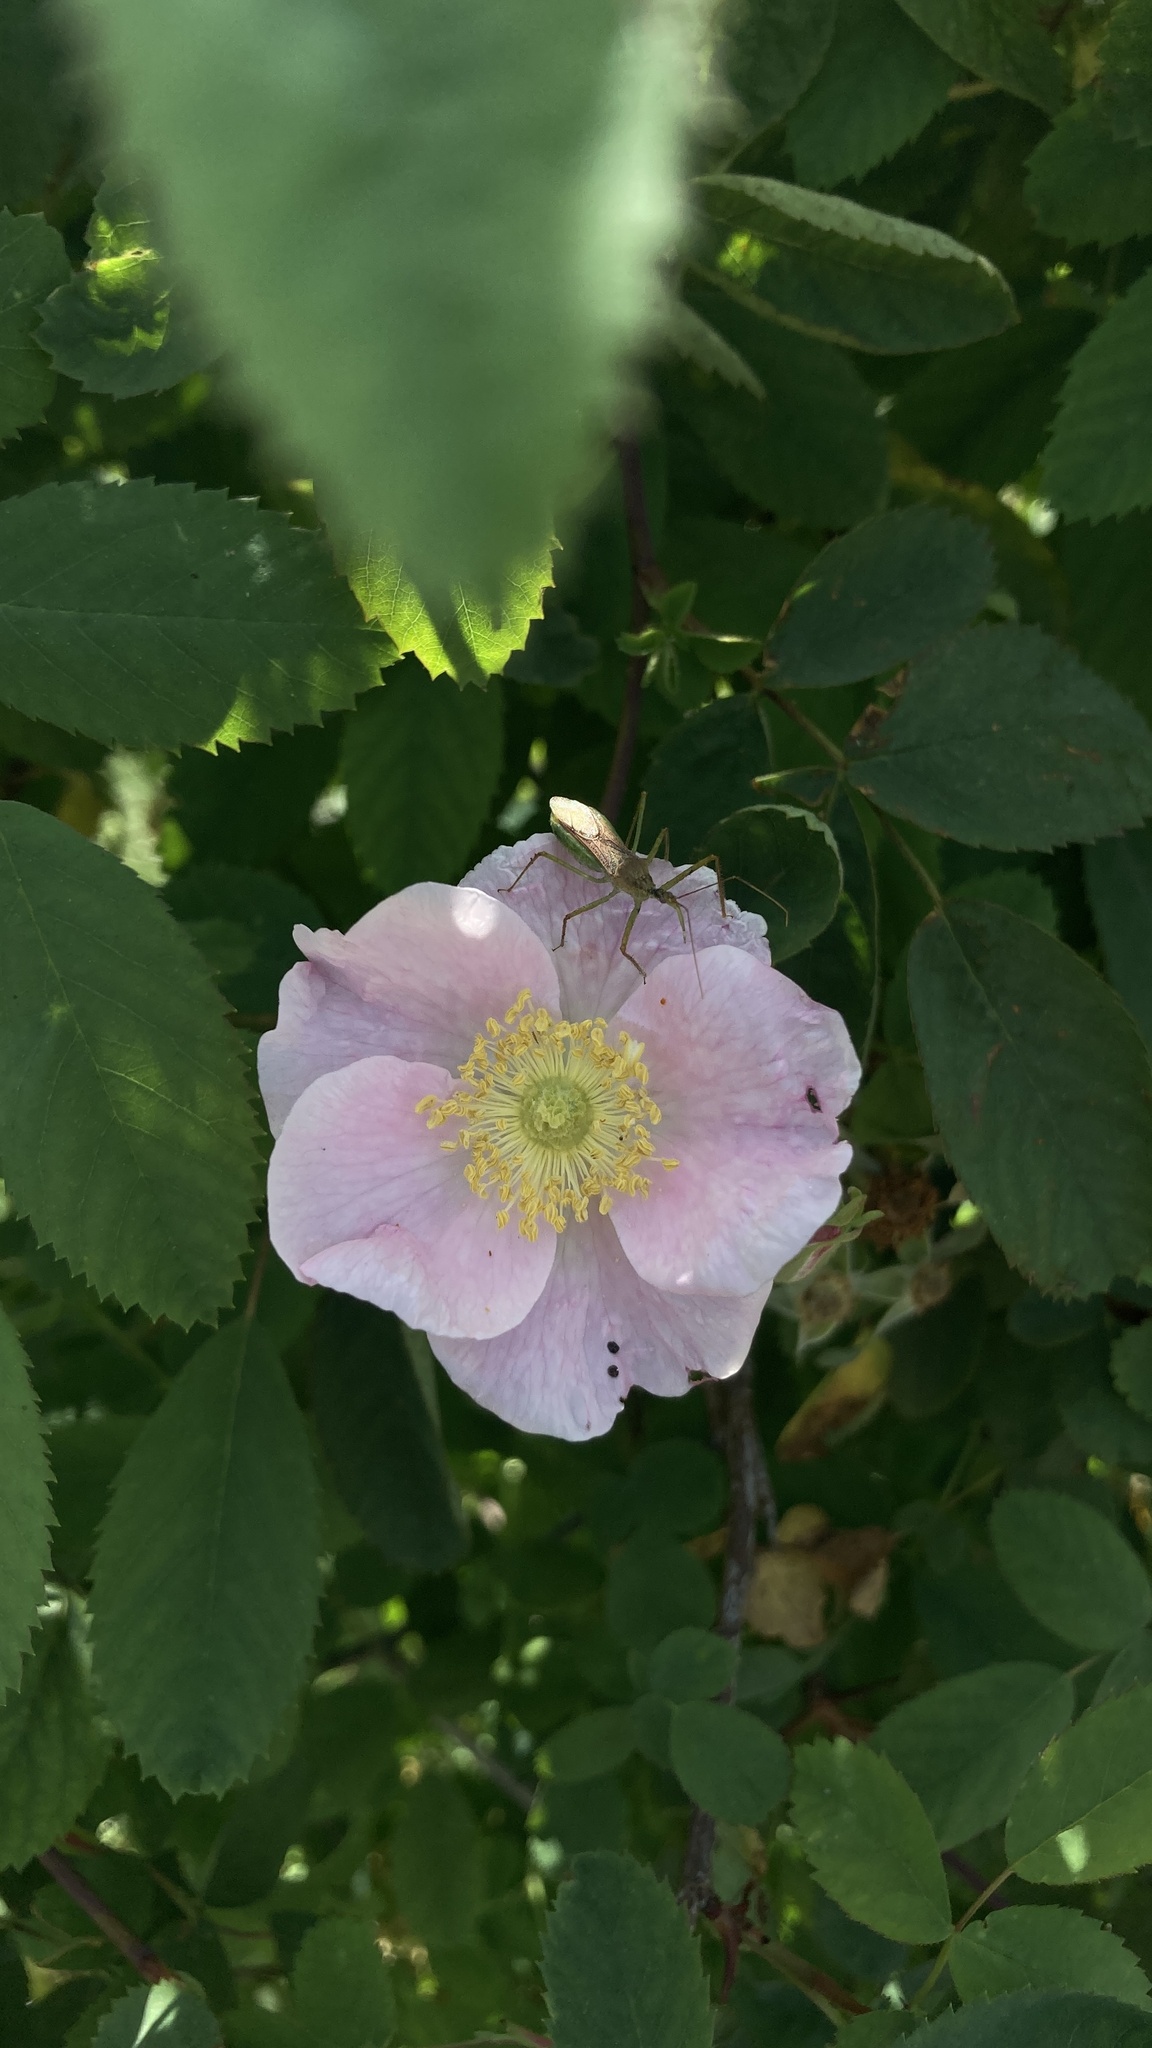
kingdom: Plantae
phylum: Tracheophyta
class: Magnoliopsida
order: Rosales
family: Rosaceae
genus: Rosa
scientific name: Rosa californica
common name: California rose
